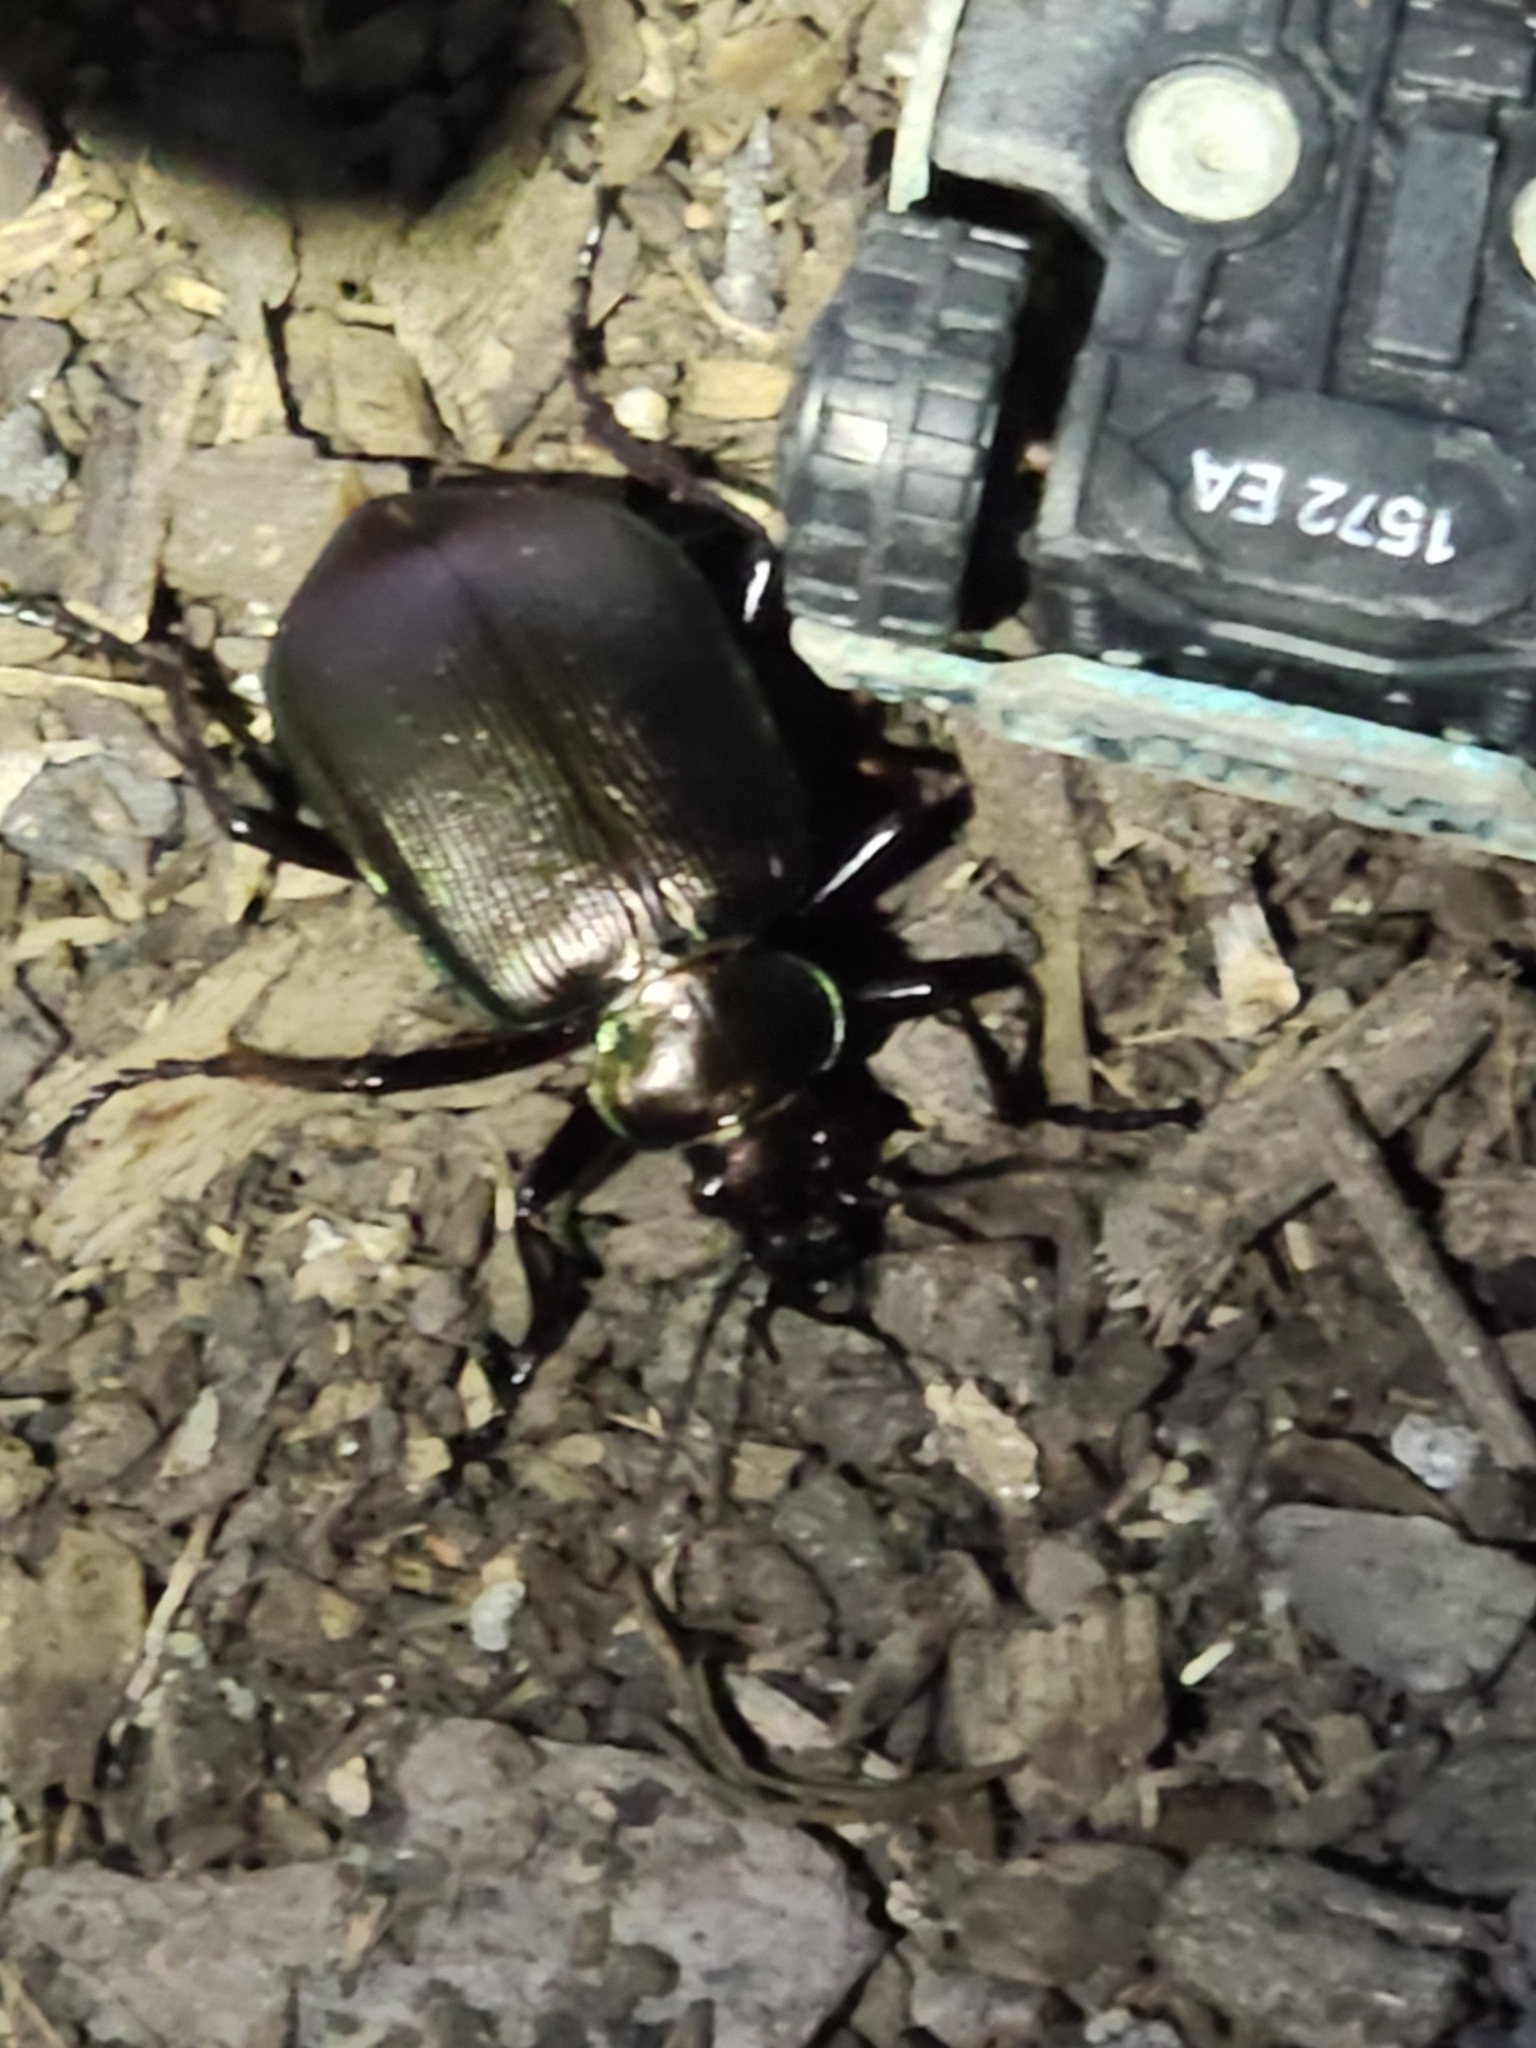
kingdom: Animalia
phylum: Arthropoda
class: Insecta
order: Coleoptera
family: Carabidae
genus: Calosoma
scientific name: Calosoma schayeri
